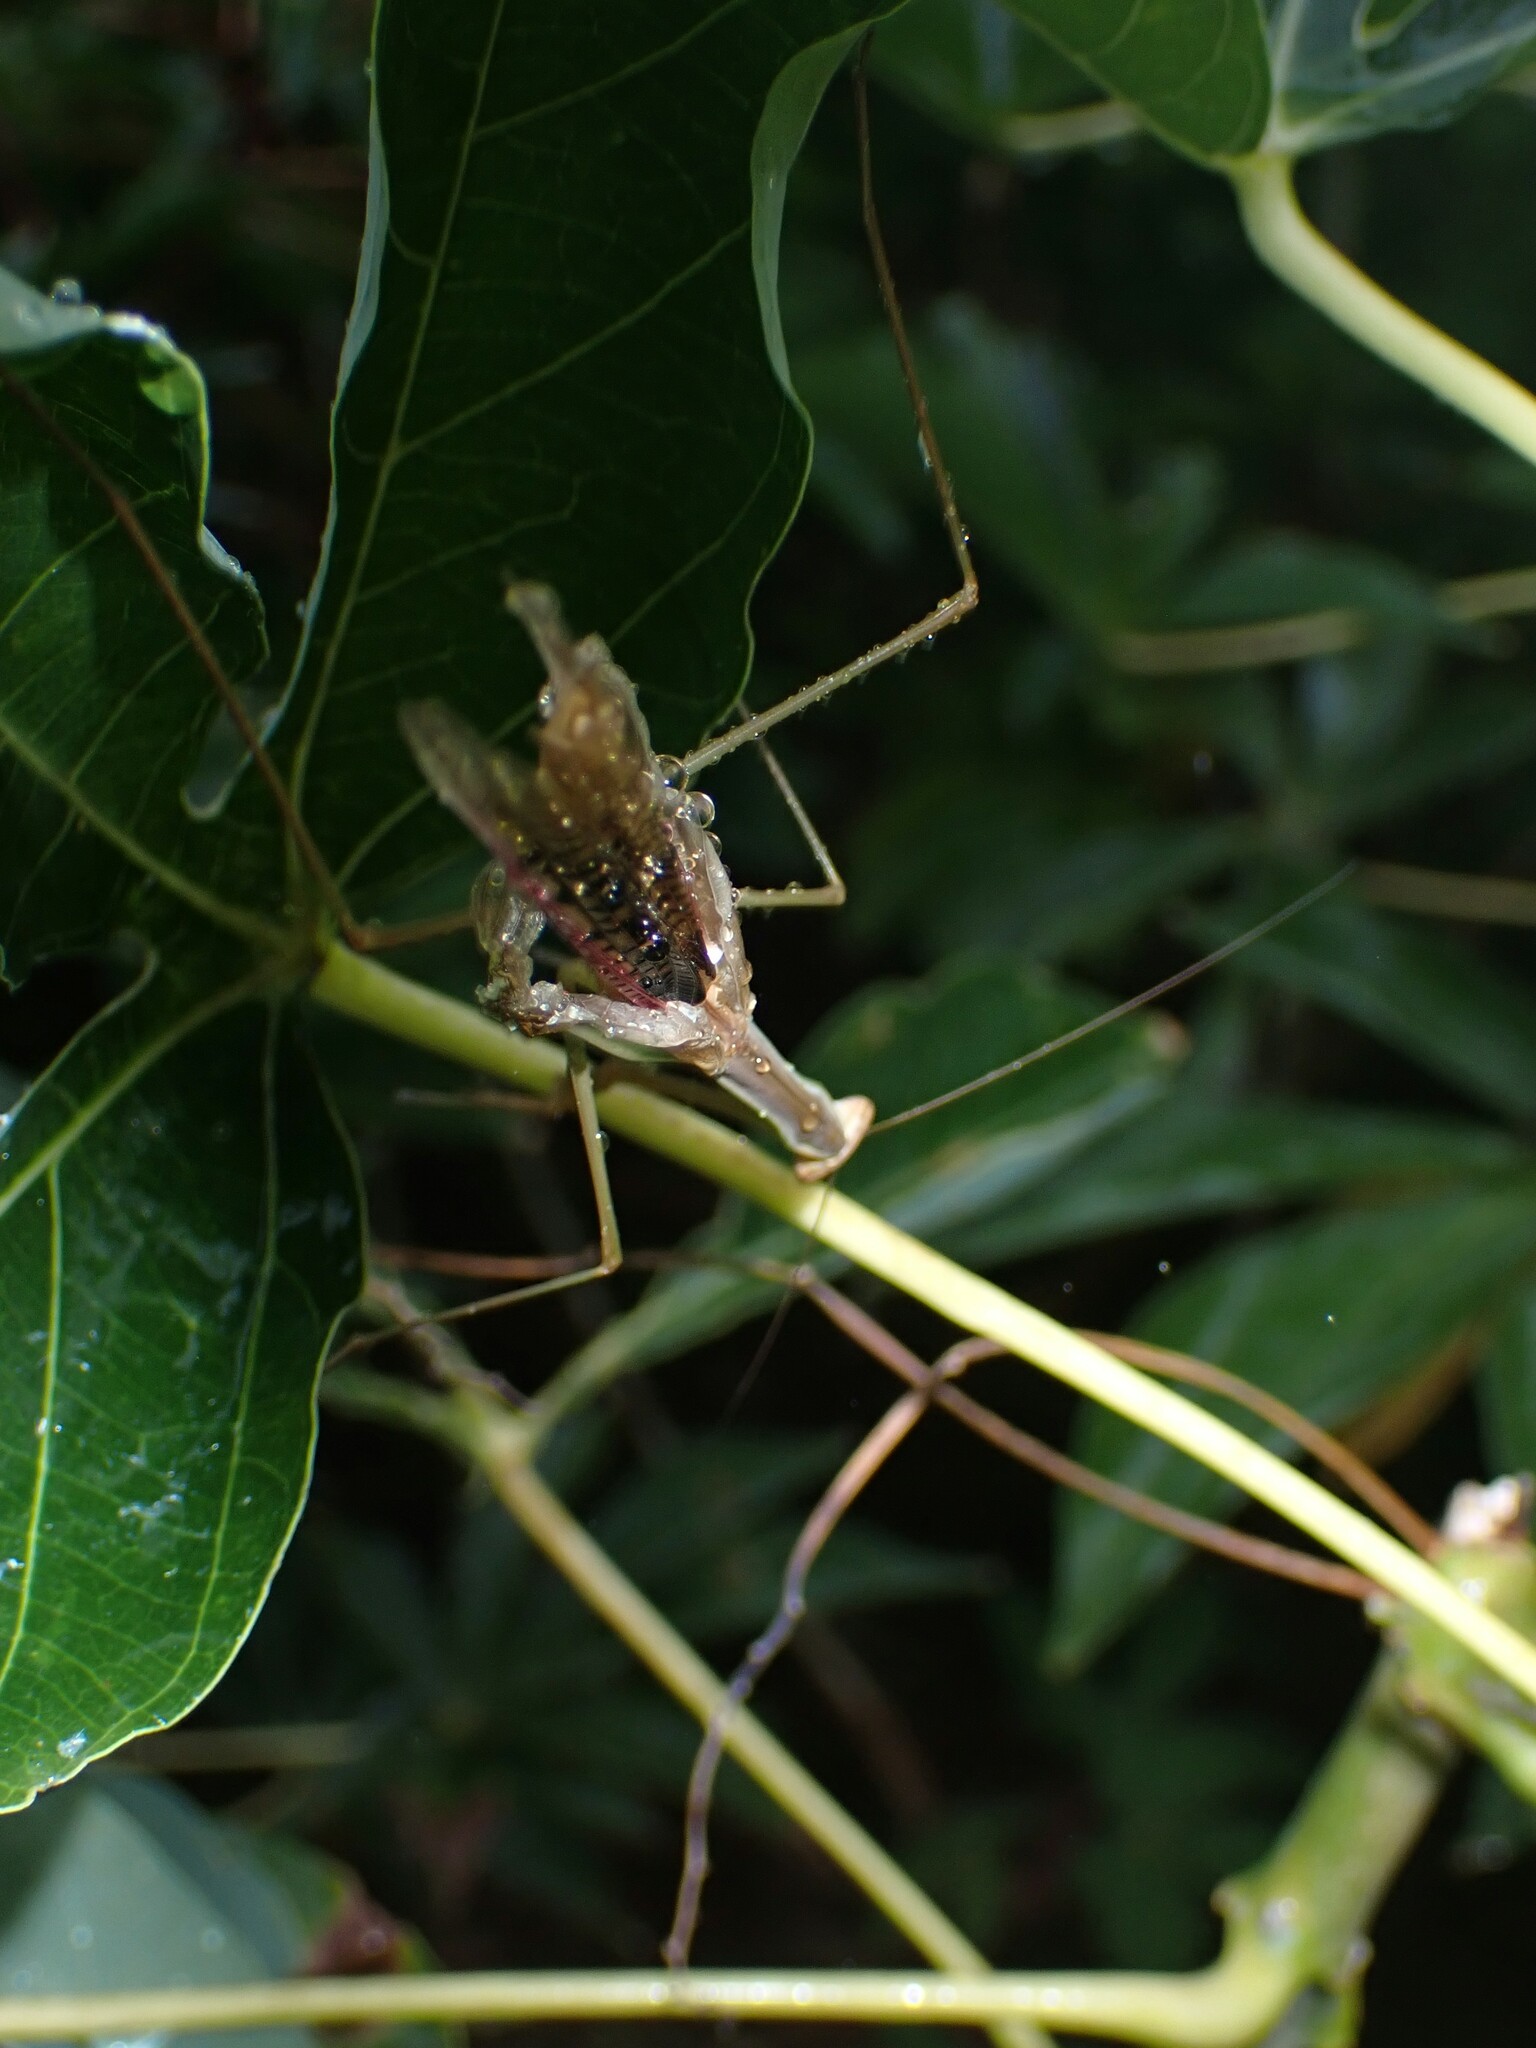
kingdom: Animalia
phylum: Arthropoda
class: Insecta
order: Mantodea
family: Mantidae
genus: Tenodera
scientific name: Tenodera australasiae
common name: Purple-winged mantis
